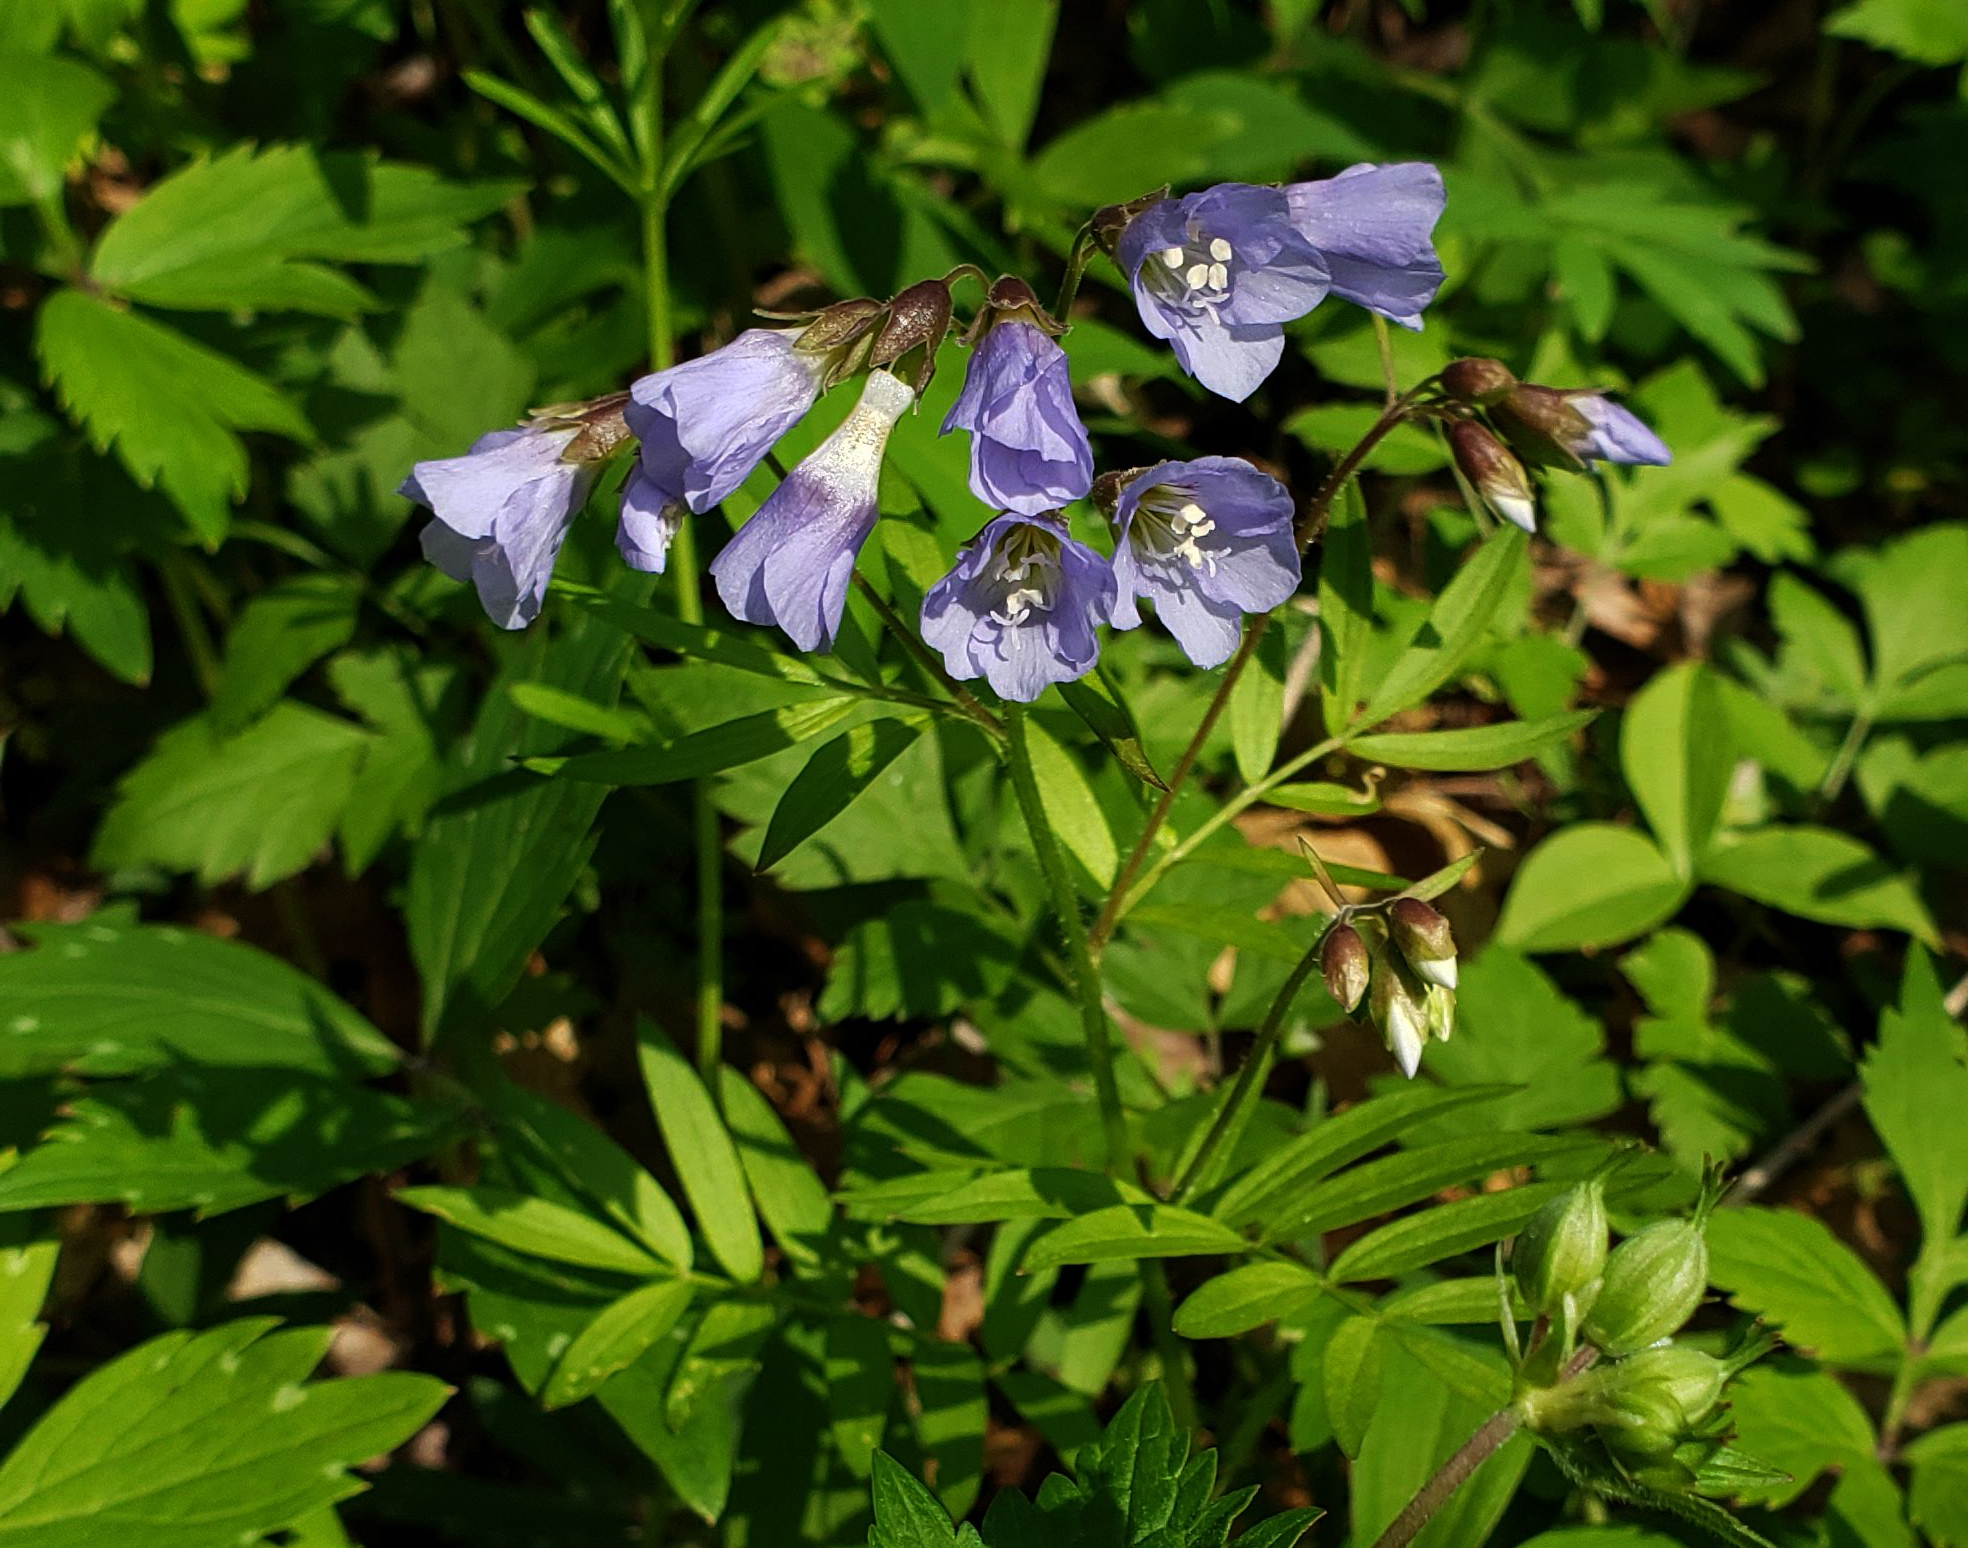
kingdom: Plantae
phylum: Tracheophyta
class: Magnoliopsida
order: Ericales
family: Polemoniaceae
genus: Polemonium
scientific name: Polemonium reptans
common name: Creeping jacob's-ladder
